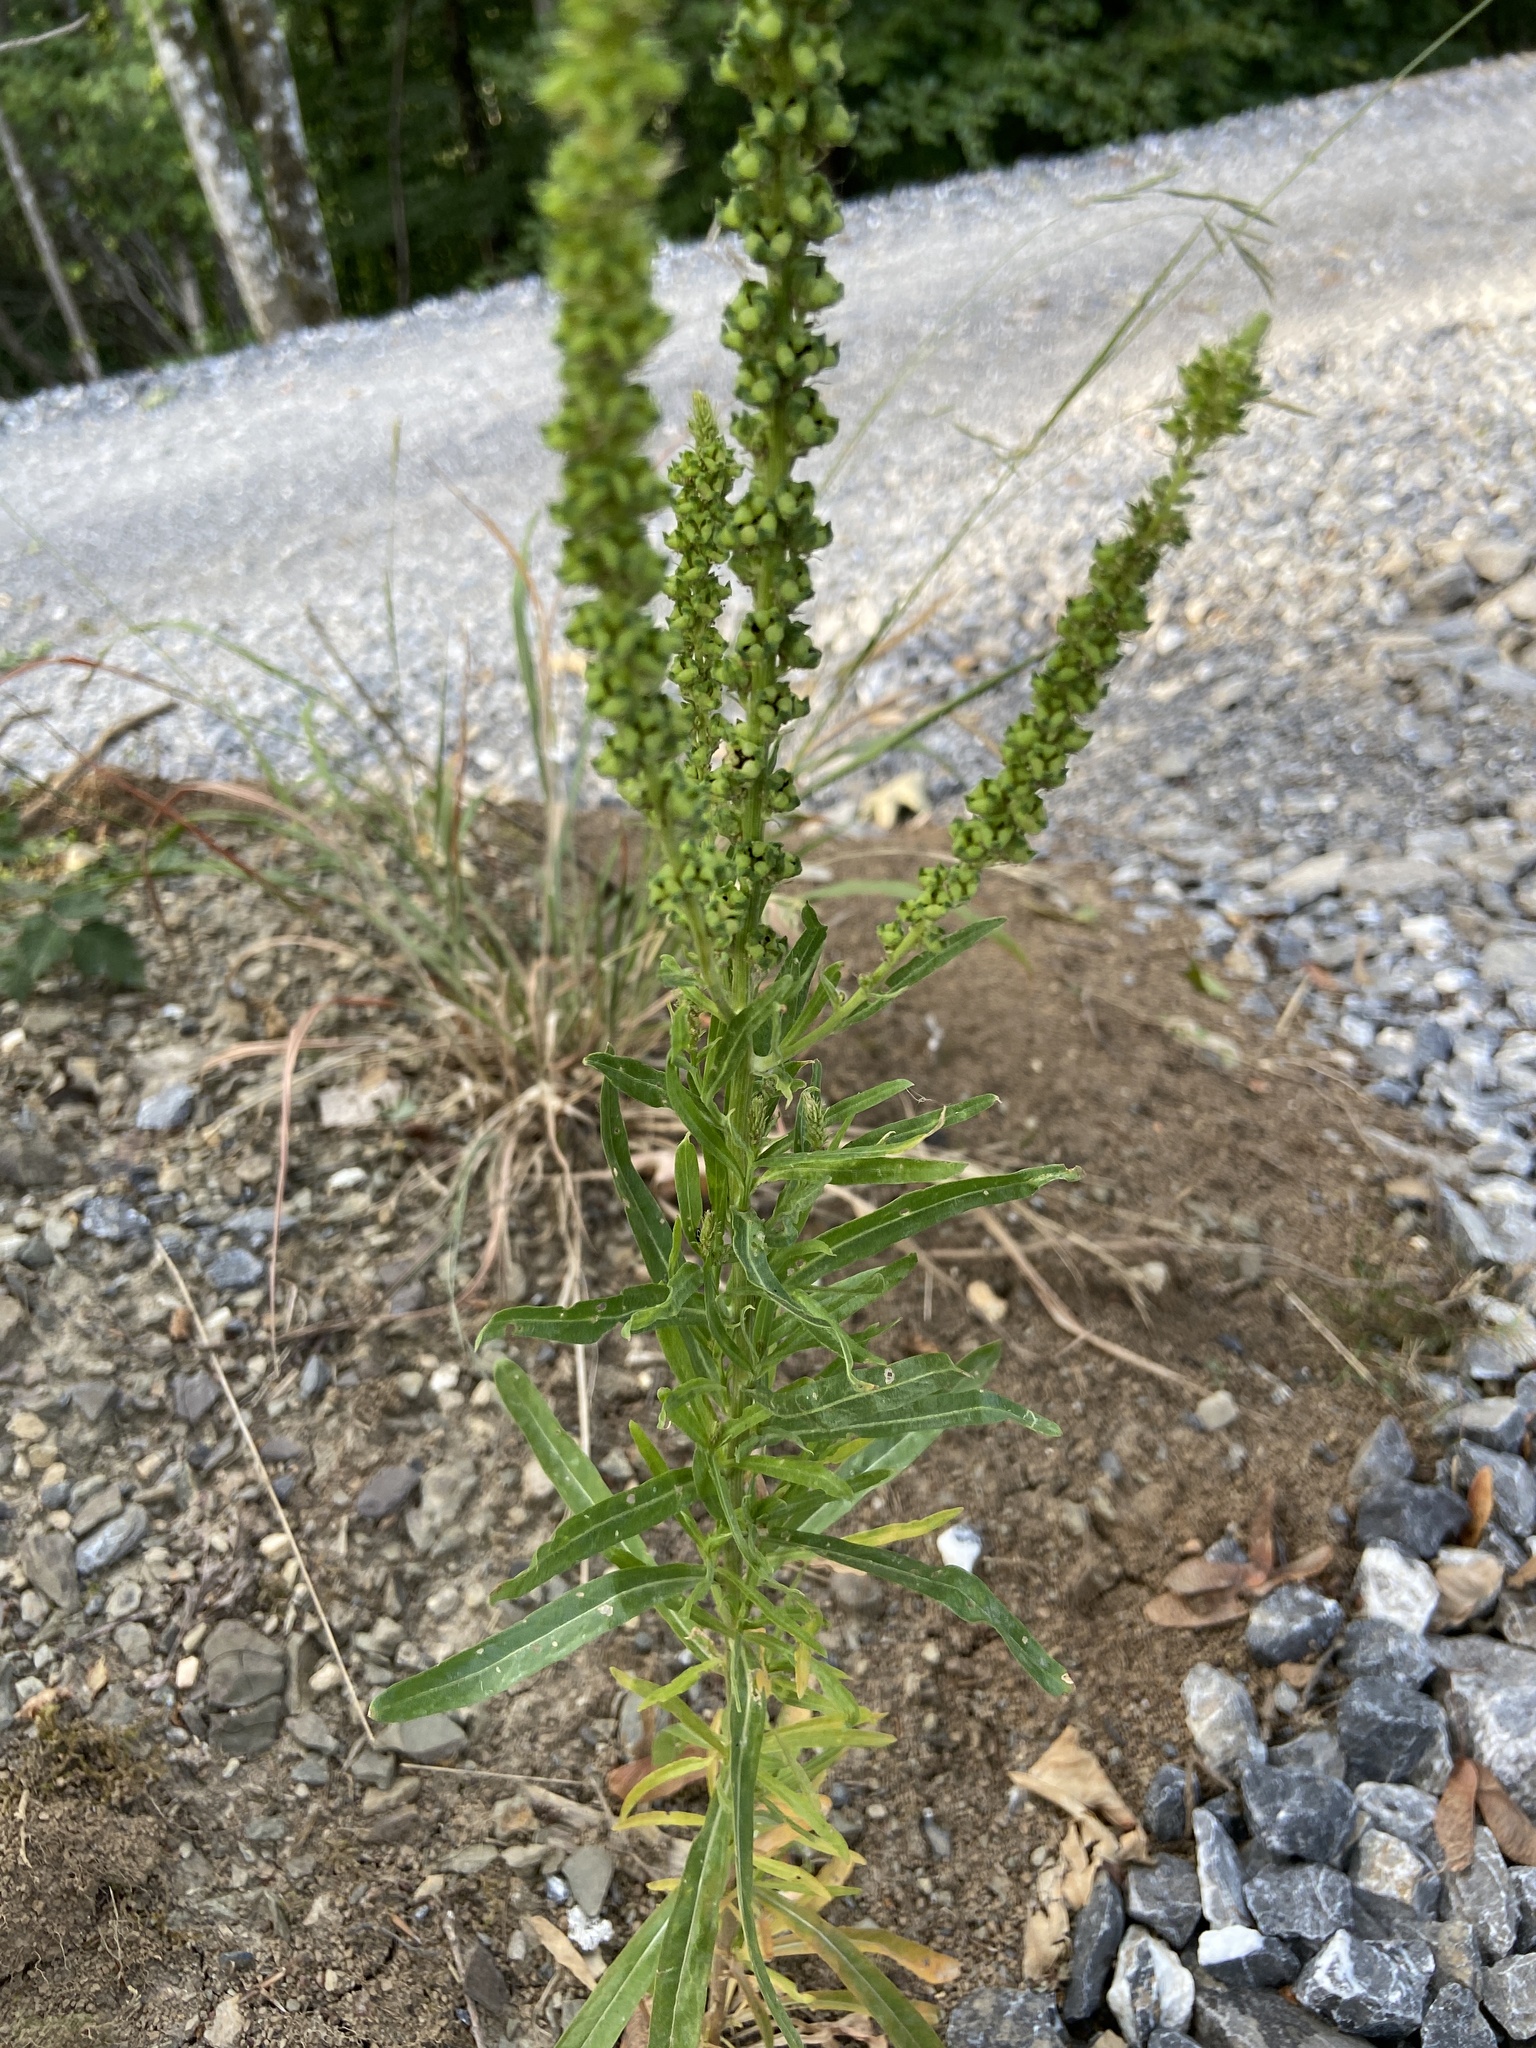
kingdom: Plantae
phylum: Tracheophyta
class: Magnoliopsida
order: Brassicales
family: Resedaceae
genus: Reseda
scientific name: Reseda luteola
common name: Weld
